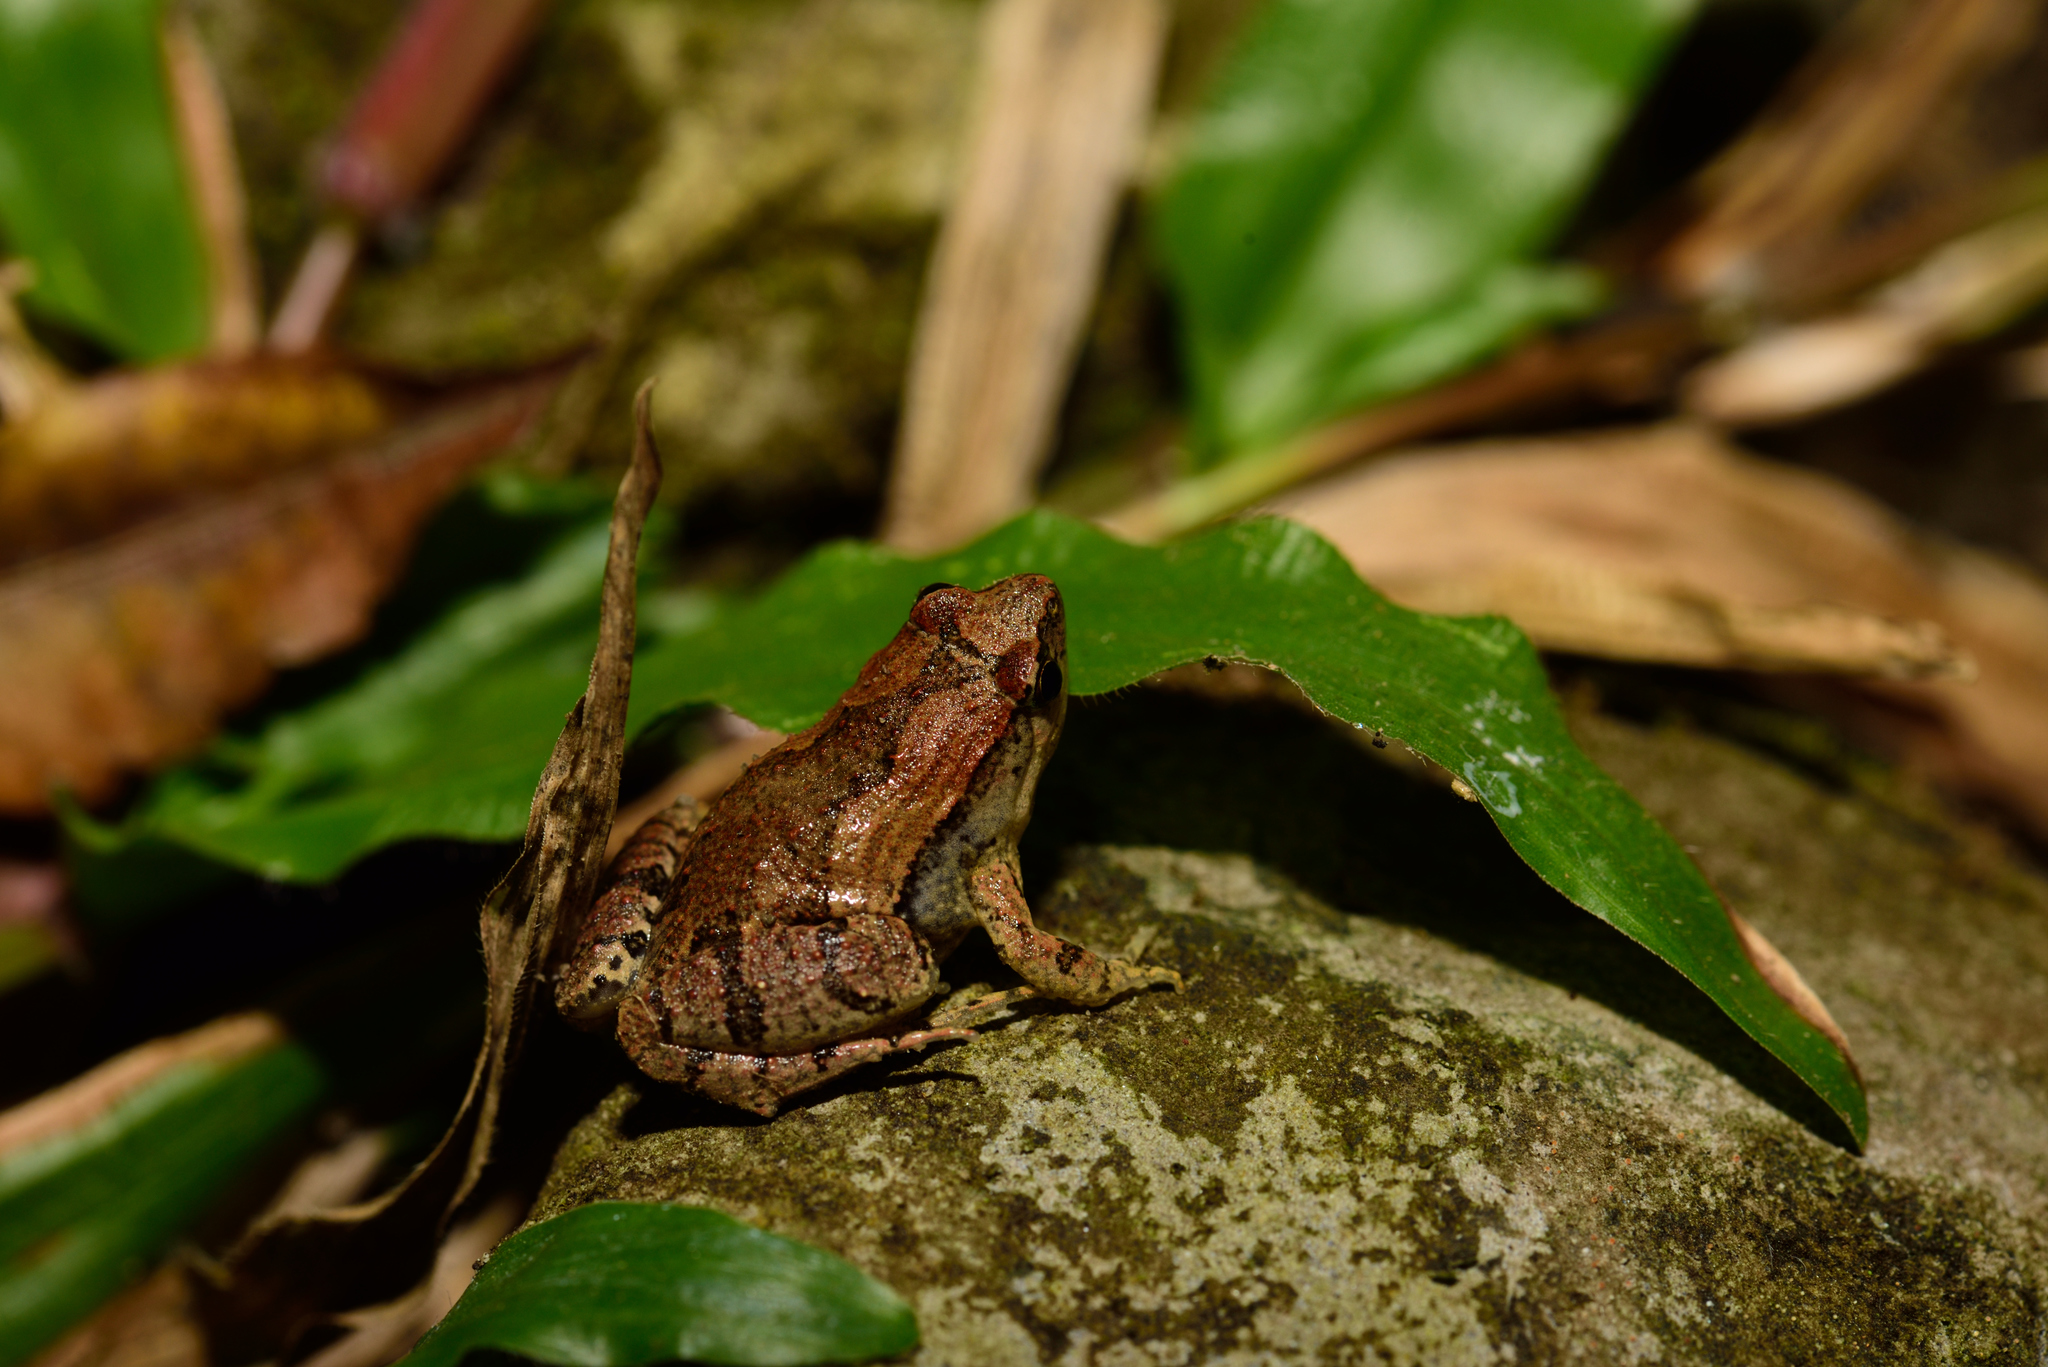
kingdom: Animalia
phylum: Chordata
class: Amphibia
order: Anura
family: Microhylidae
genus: Microhyla
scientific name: Microhyla fissipes
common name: Ornate narrow-mouthed frog
